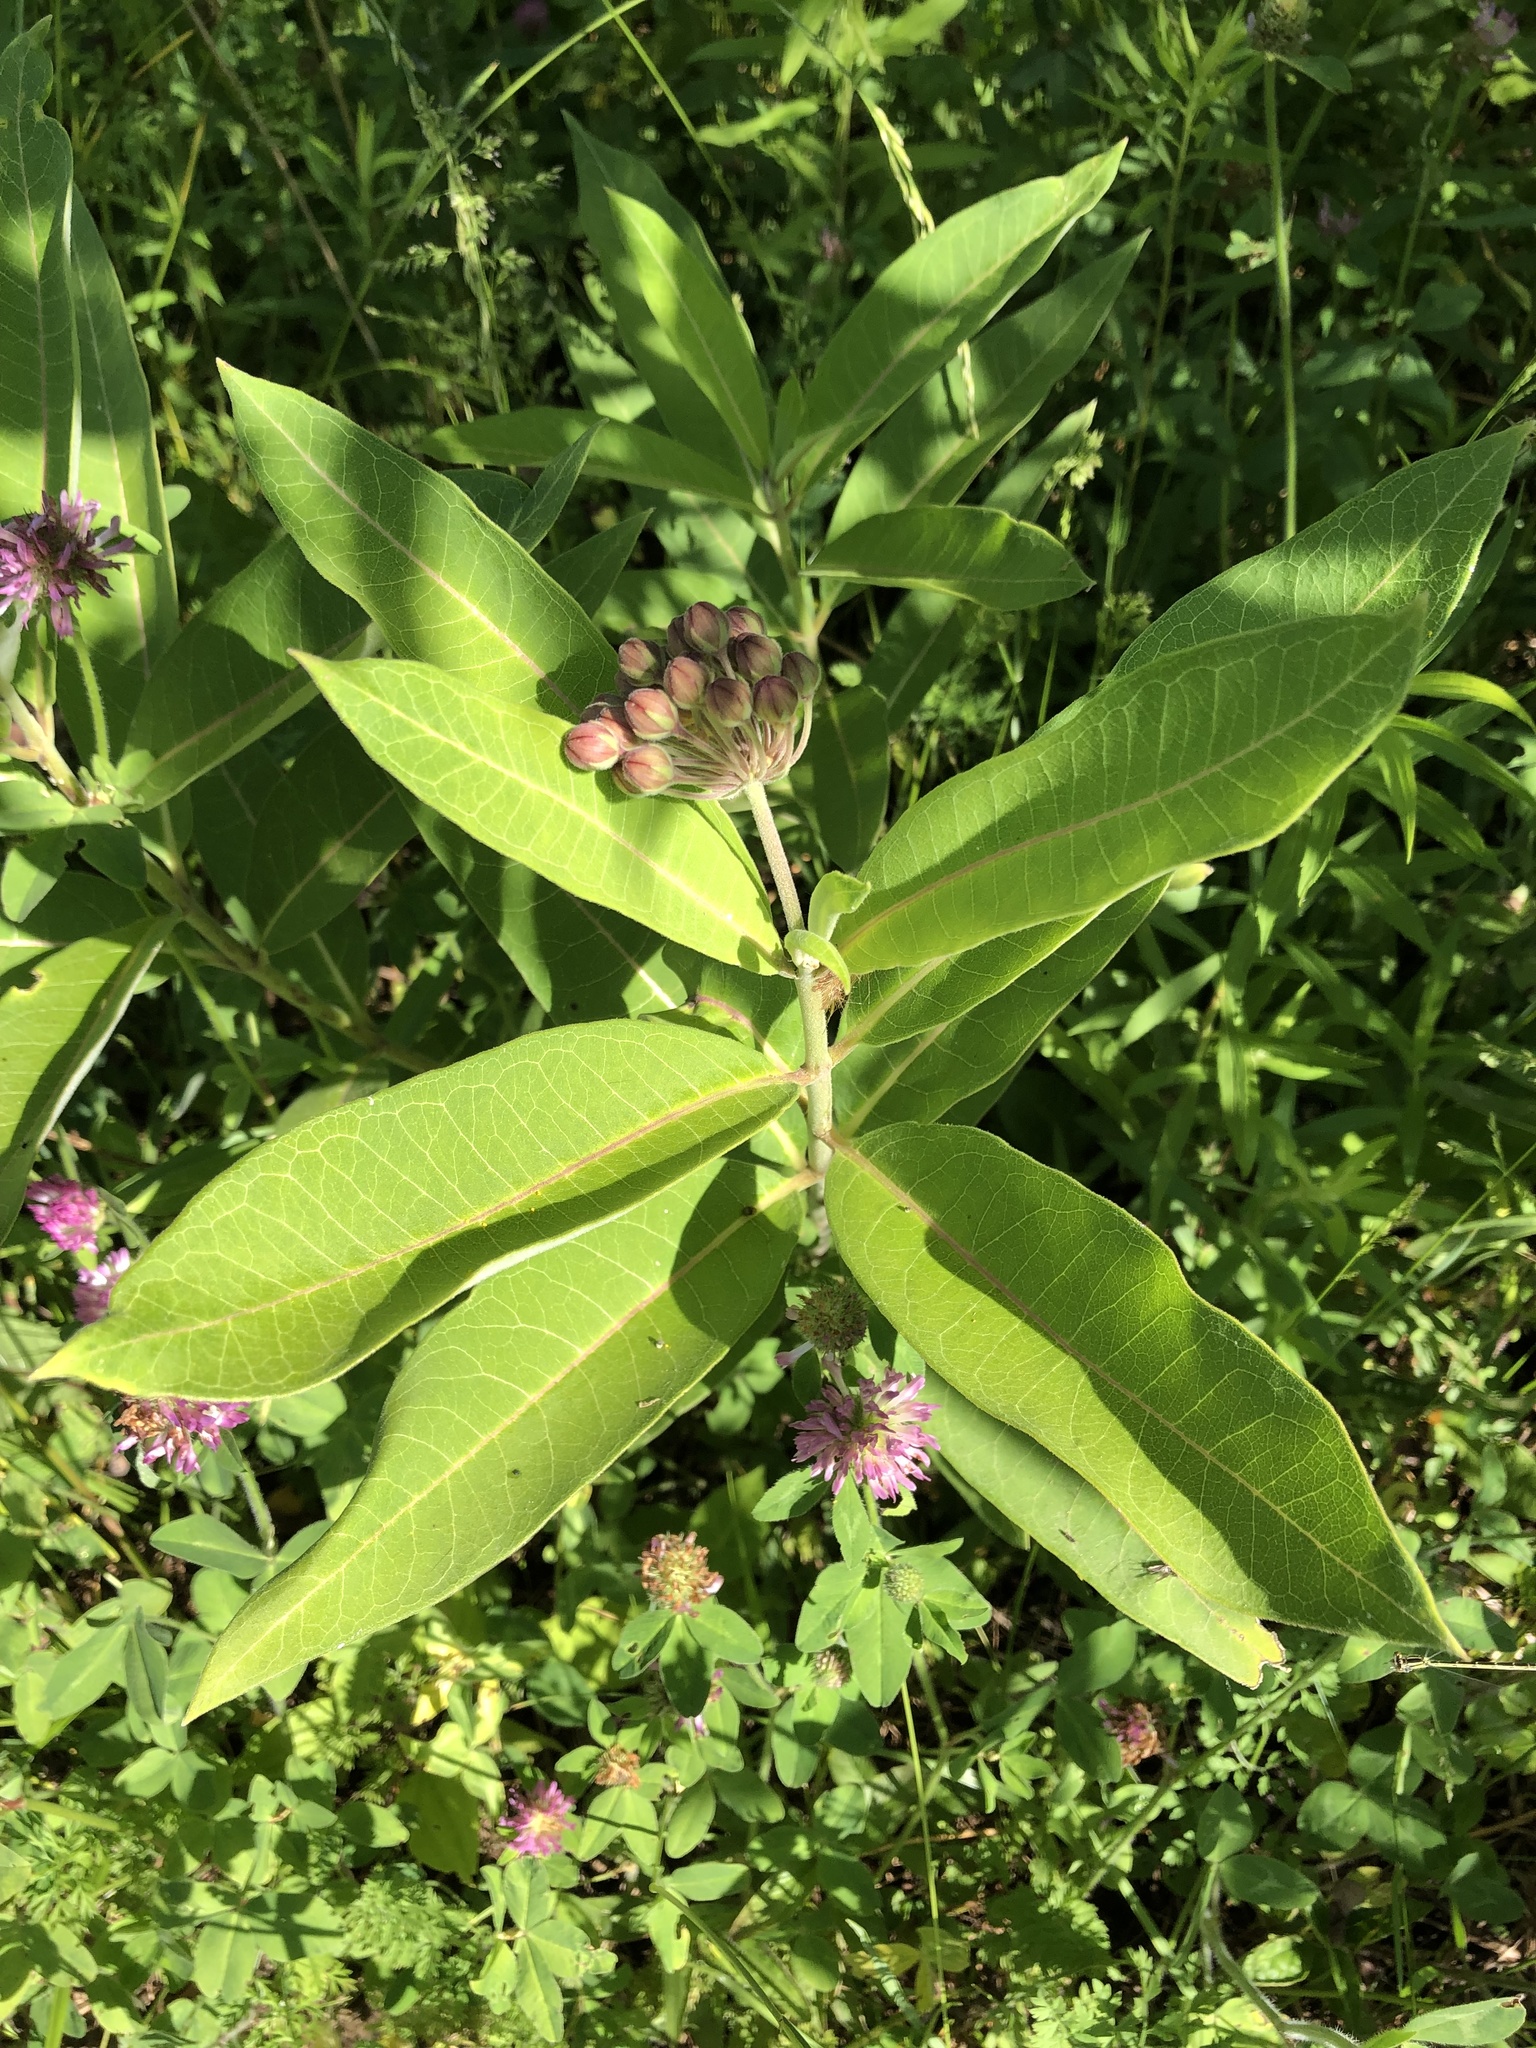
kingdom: Plantae
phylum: Tracheophyta
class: Magnoliopsida
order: Gentianales
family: Apocynaceae
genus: Asclepias
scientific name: Asclepias syriaca
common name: Common milkweed
